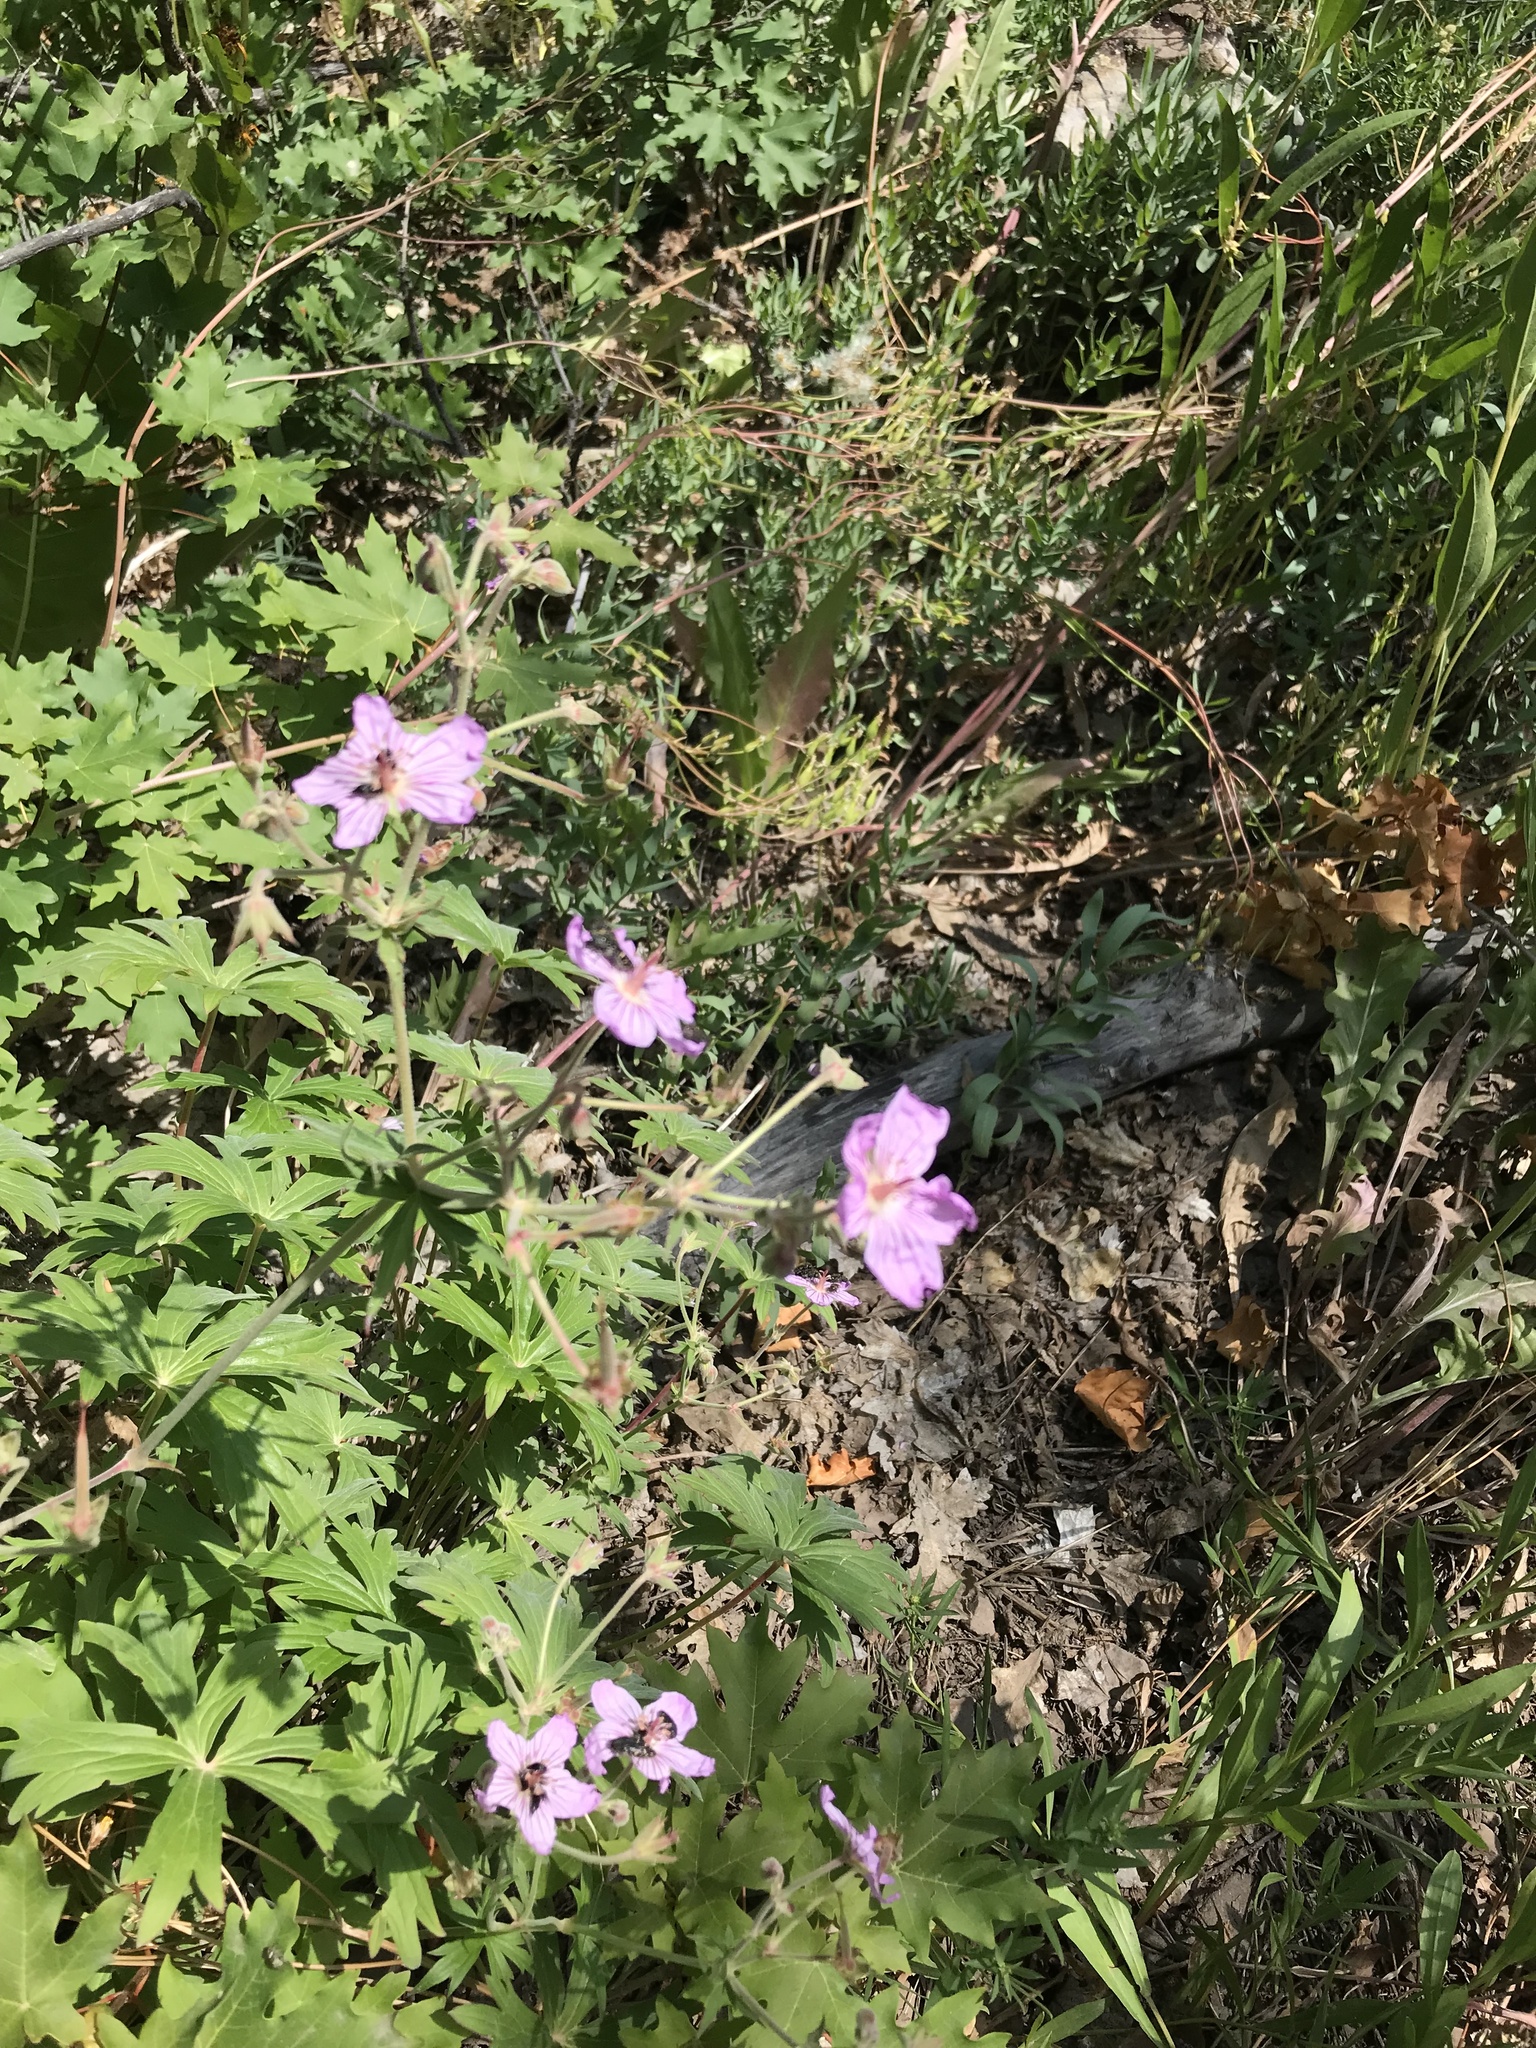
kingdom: Plantae
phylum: Tracheophyta
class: Magnoliopsida
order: Geraniales
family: Geraniaceae
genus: Geranium
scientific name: Geranium viscosissimum
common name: Purple geranium
